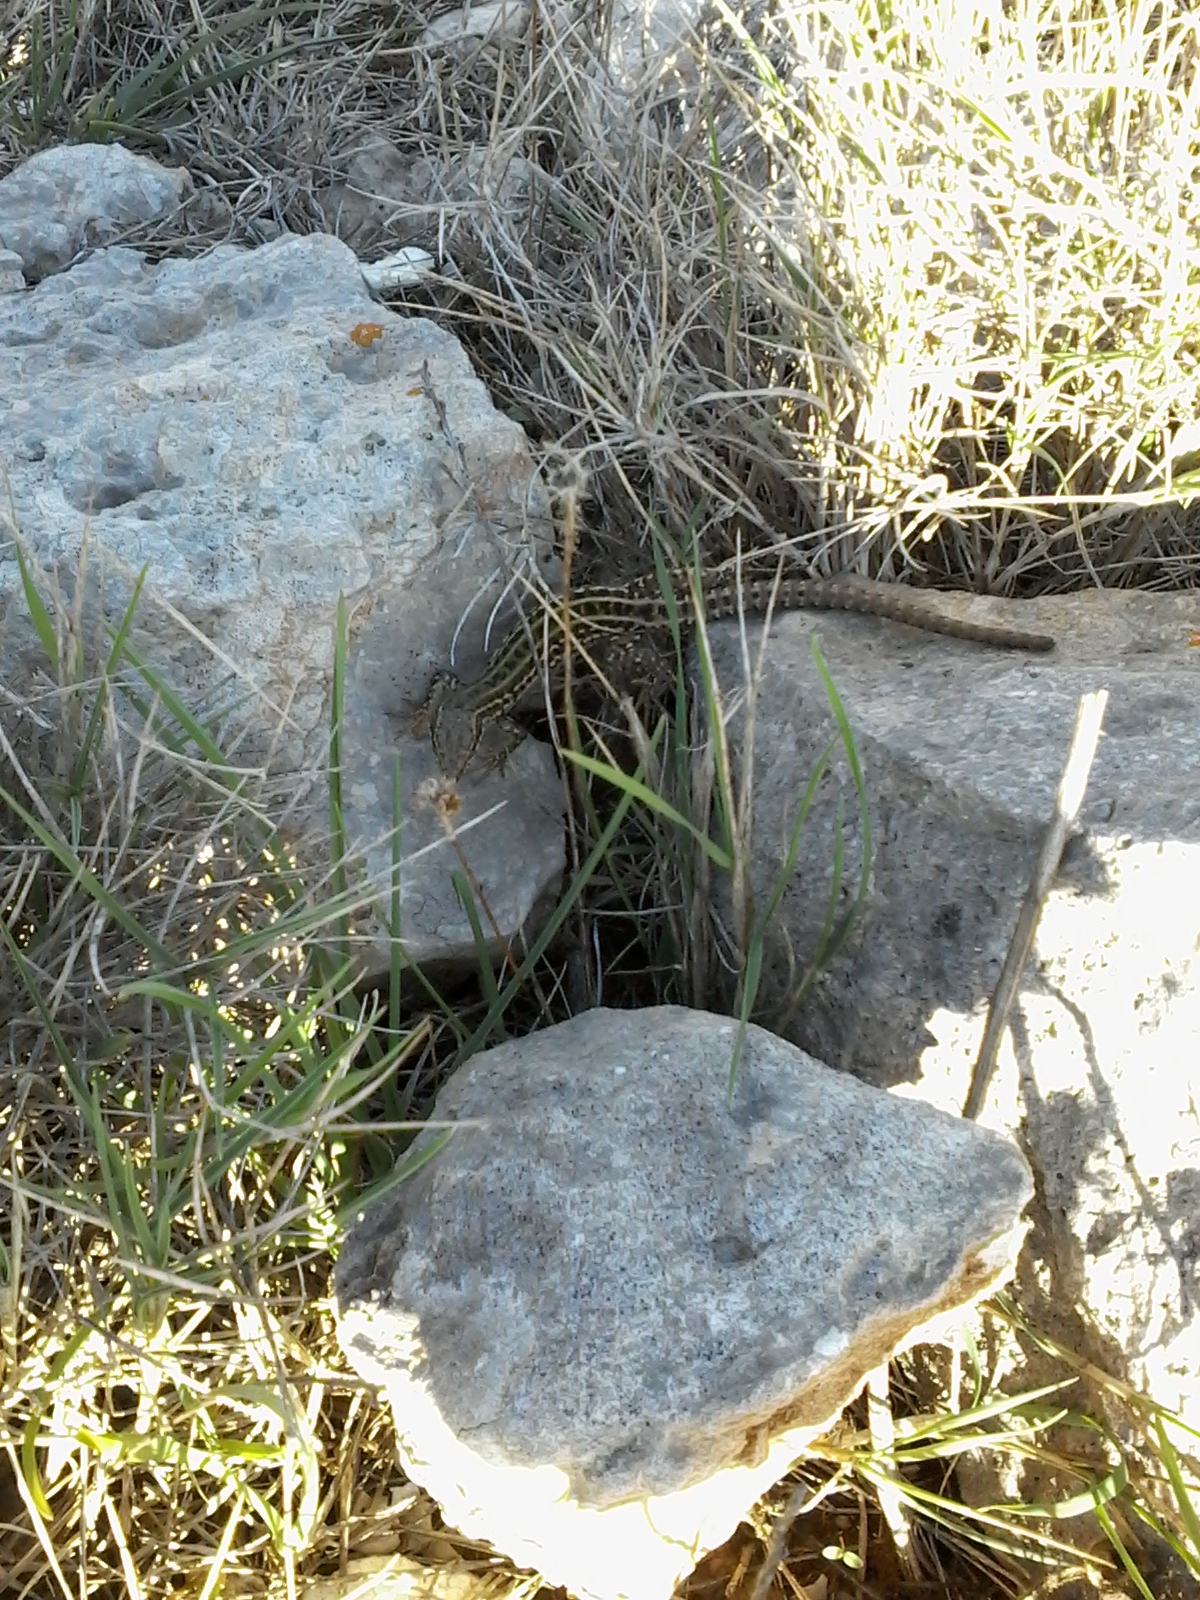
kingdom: Animalia
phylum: Chordata
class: Squamata
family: Lacertidae
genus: Podarcis
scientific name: Podarcis siculus
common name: Italian wall lizard
